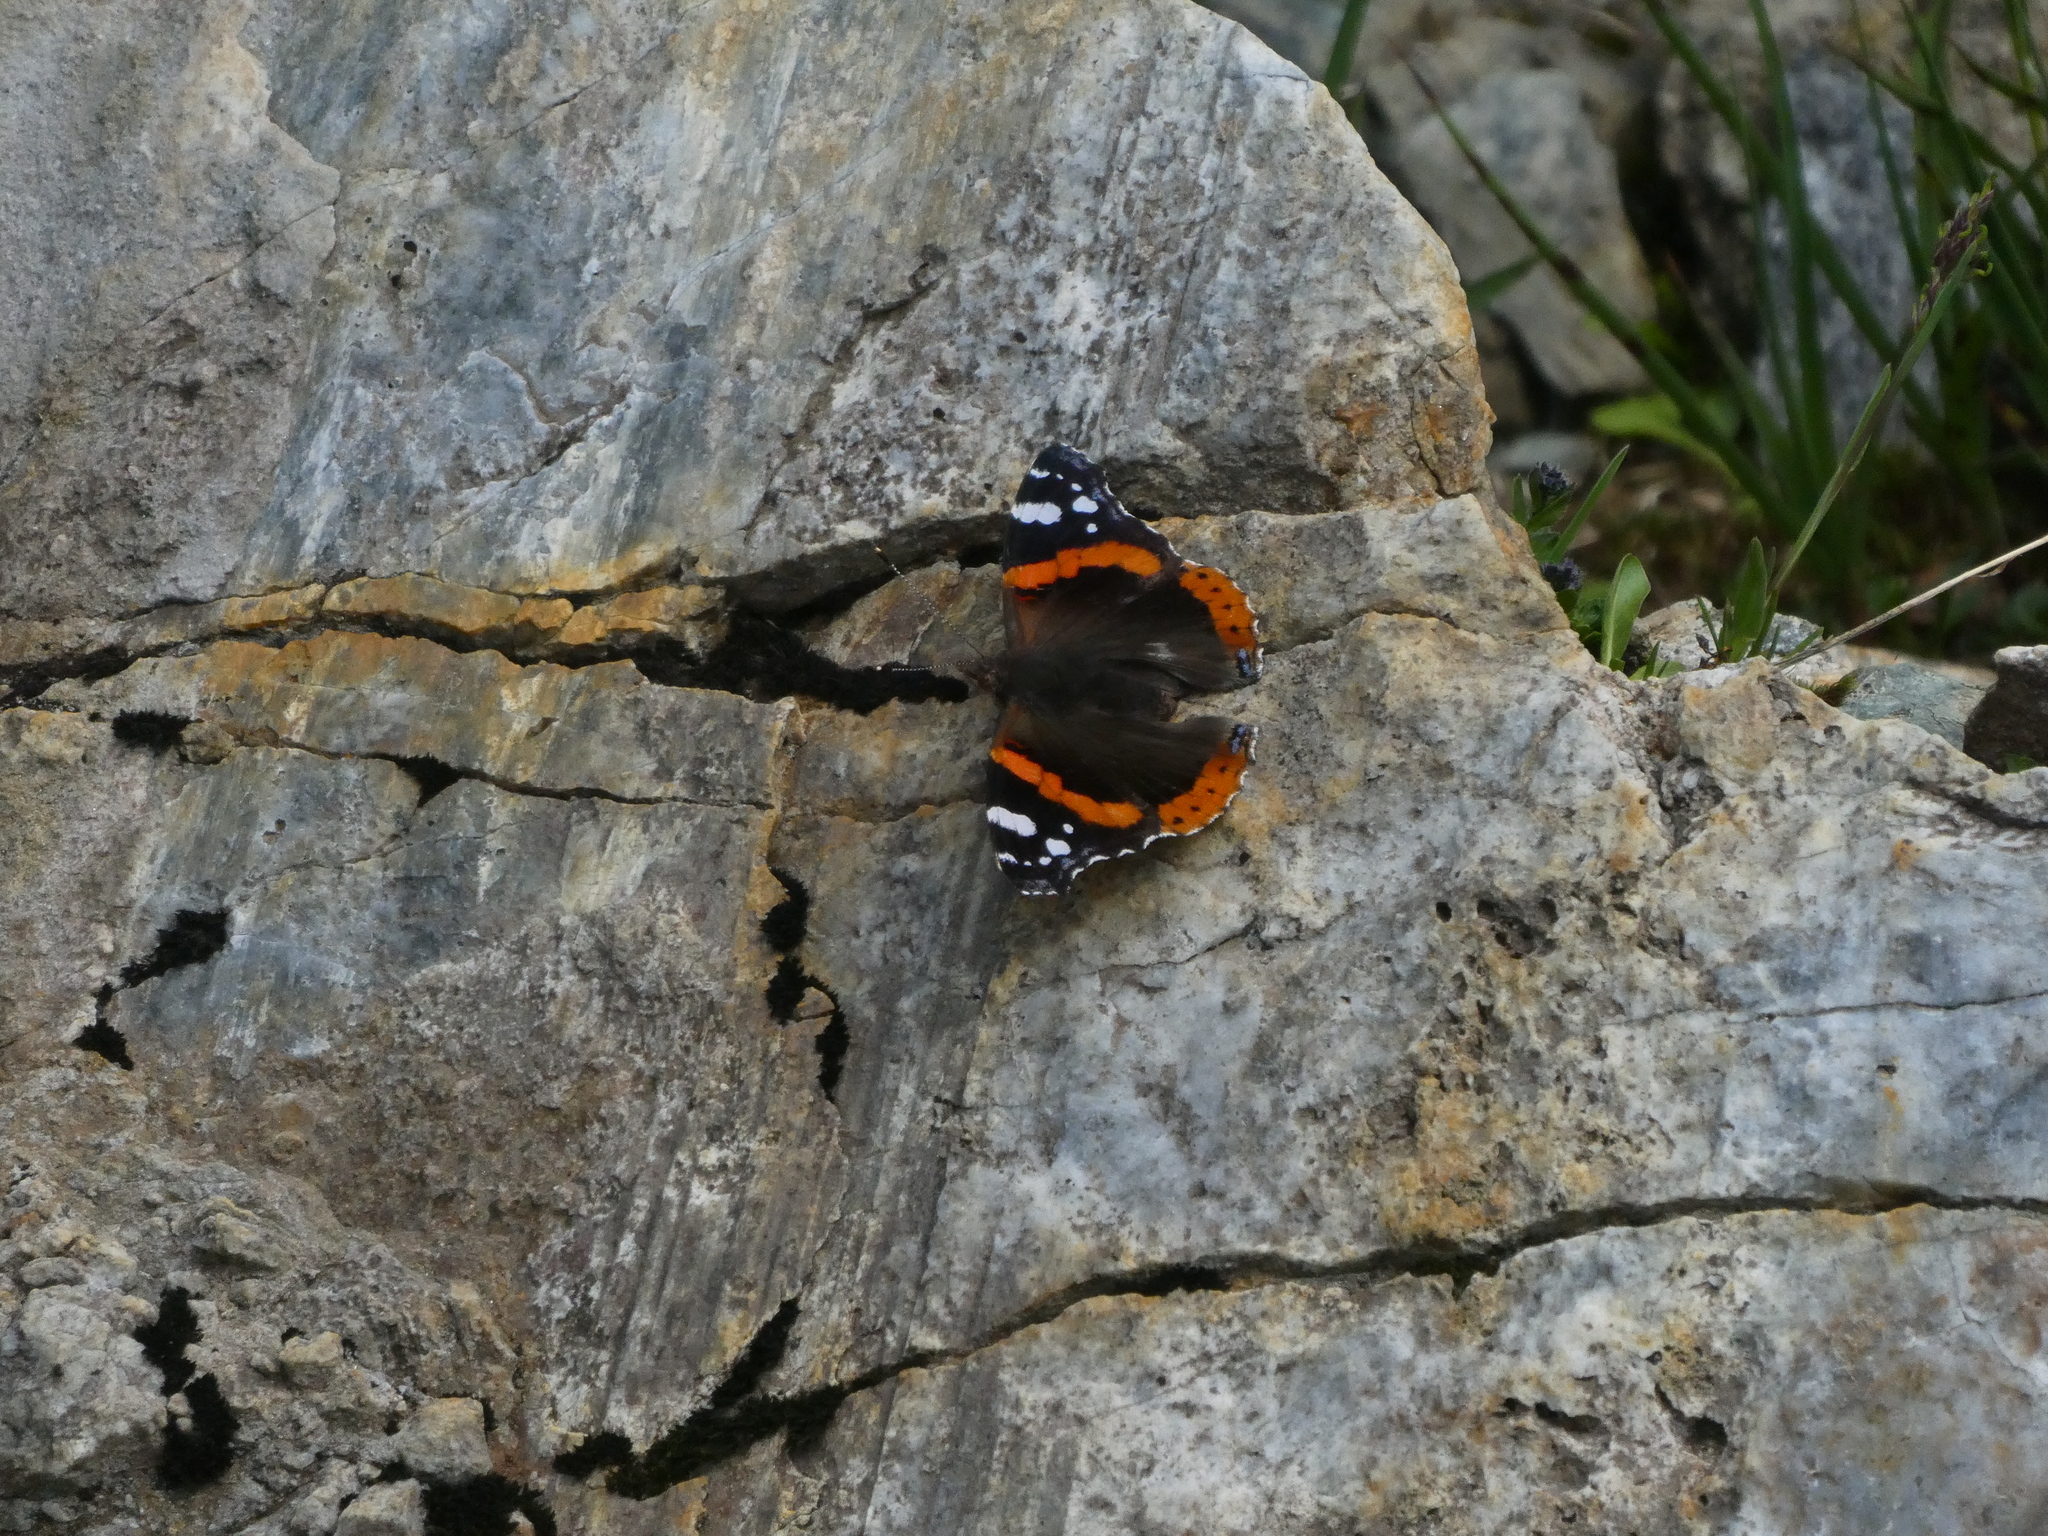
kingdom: Animalia
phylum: Arthropoda
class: Insecta
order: Lepidoptera
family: Nymphalidae
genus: Vanessa
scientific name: Vanessa atalanta
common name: Red admiral
